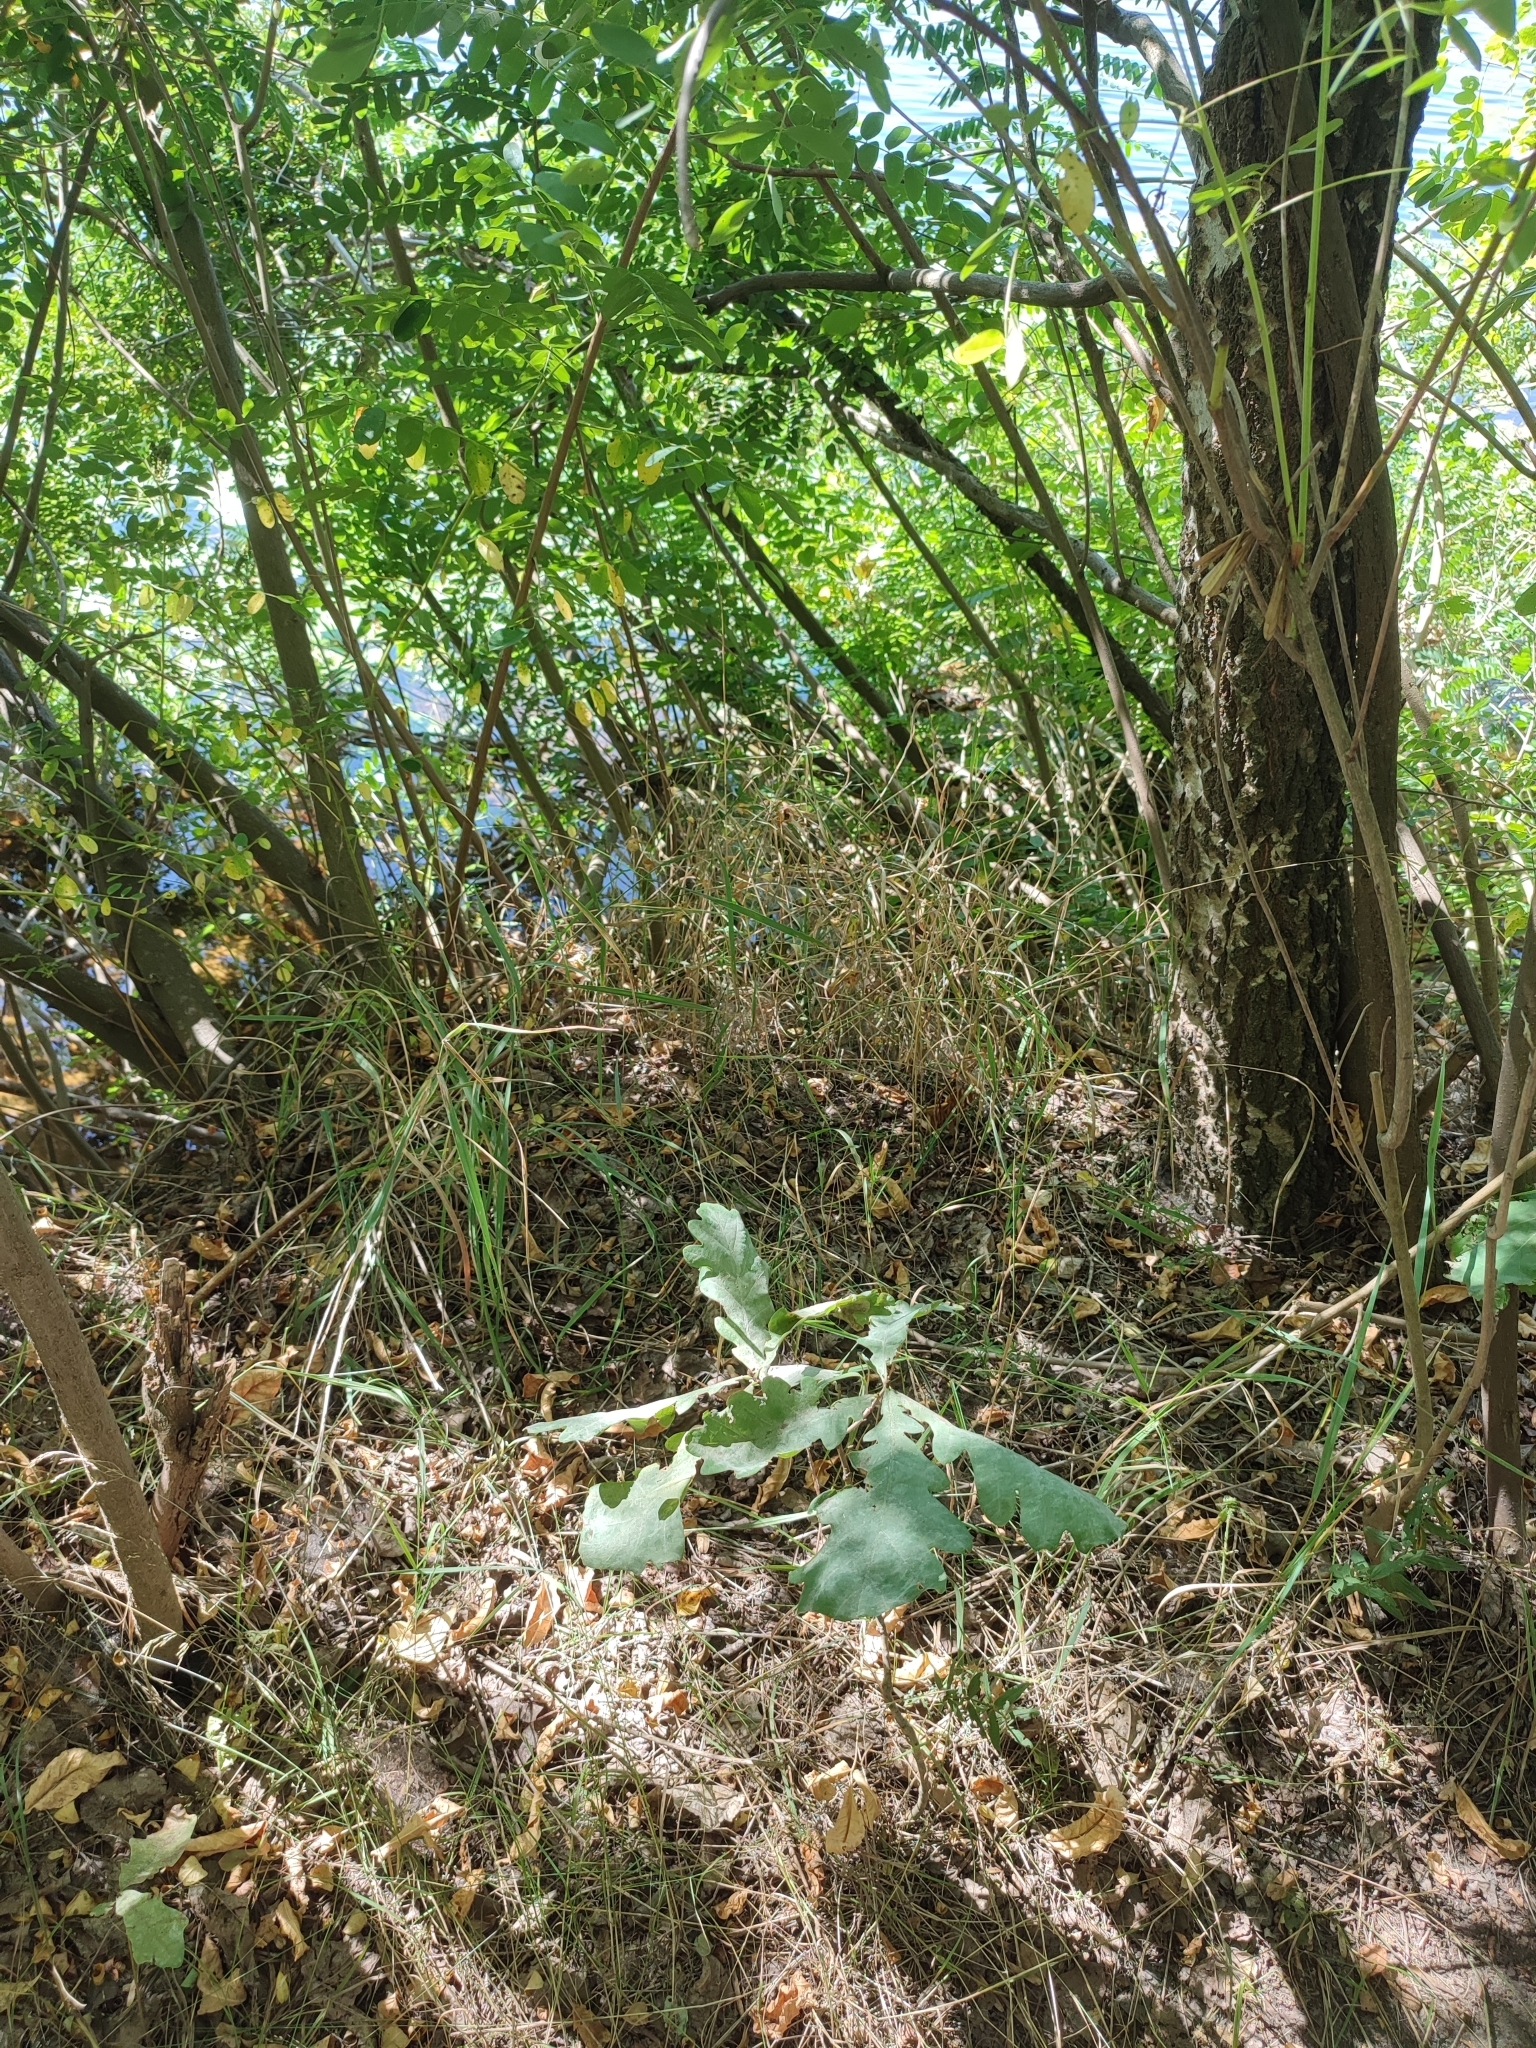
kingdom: Plantae
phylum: Tracheophyta
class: Magnoliopsida
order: Fagales
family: Fagaceae
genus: Quercus
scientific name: Quercus robur
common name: Pedunculate oak
